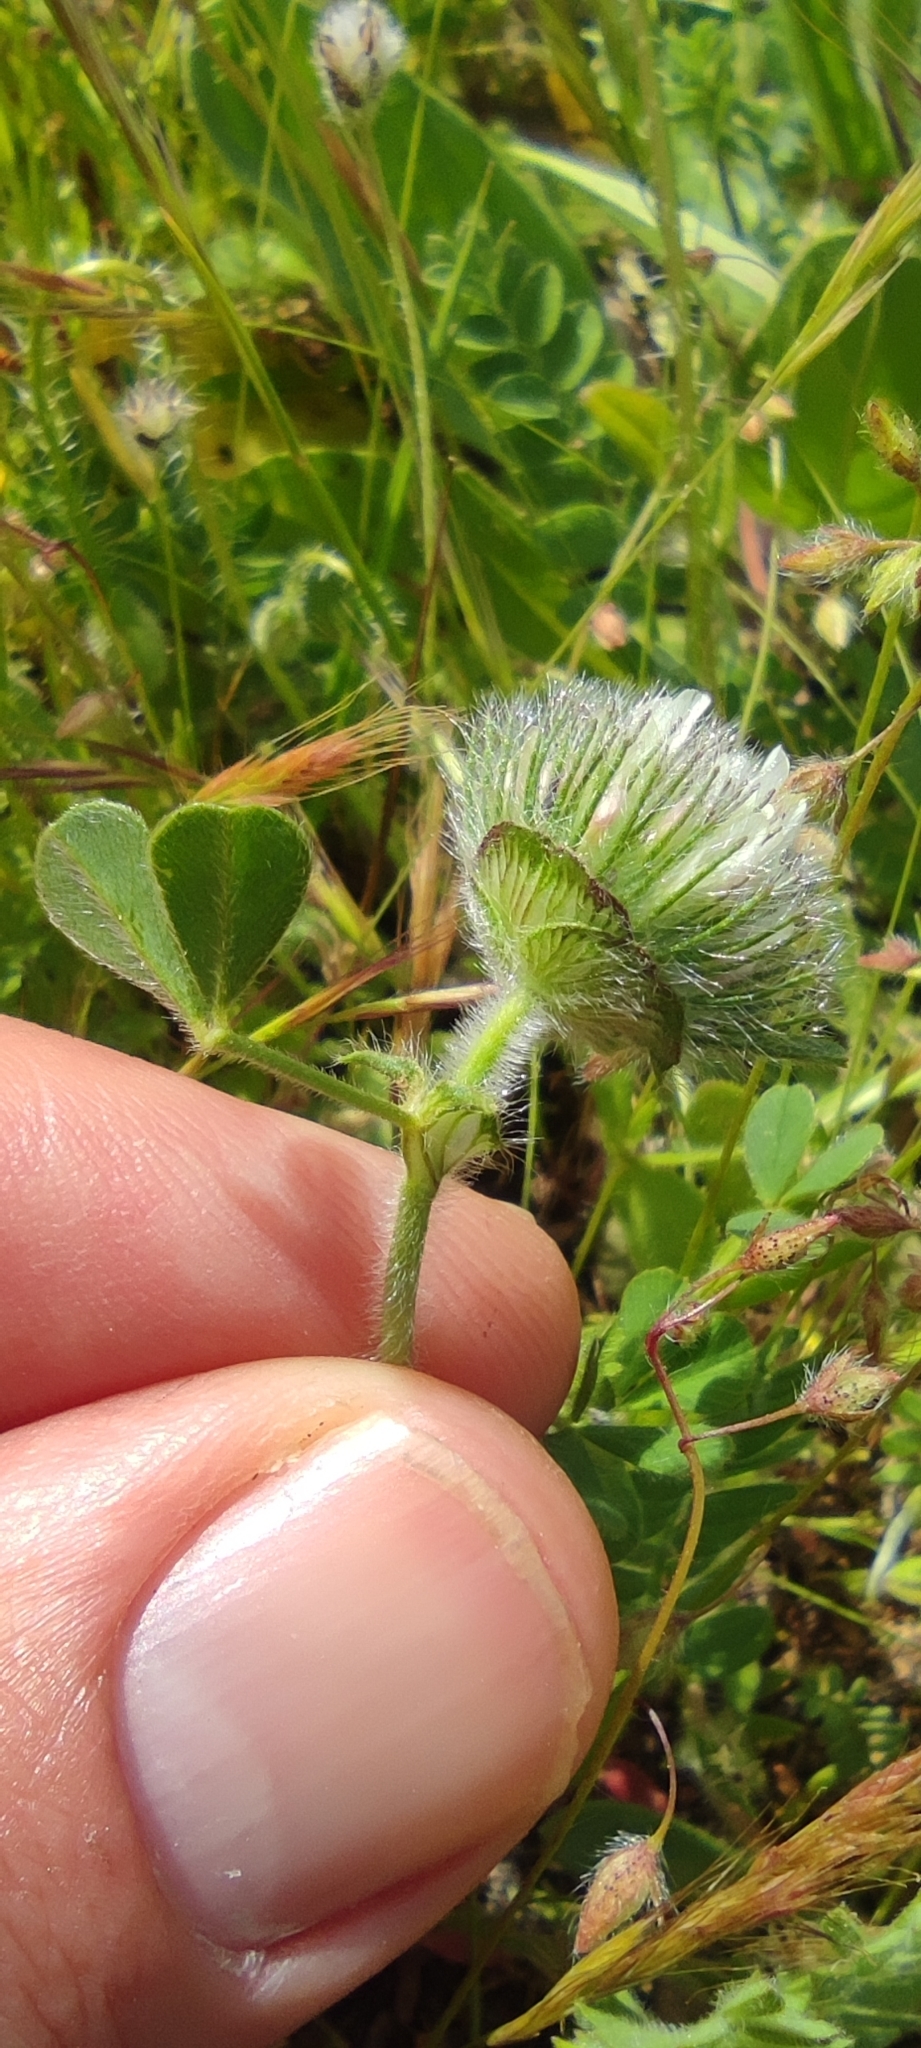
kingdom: Plantae
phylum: Tracheophyta
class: Magnoliopsida
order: Fabales
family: Fabaceae
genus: Trifolium
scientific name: Trifolium cherleri
